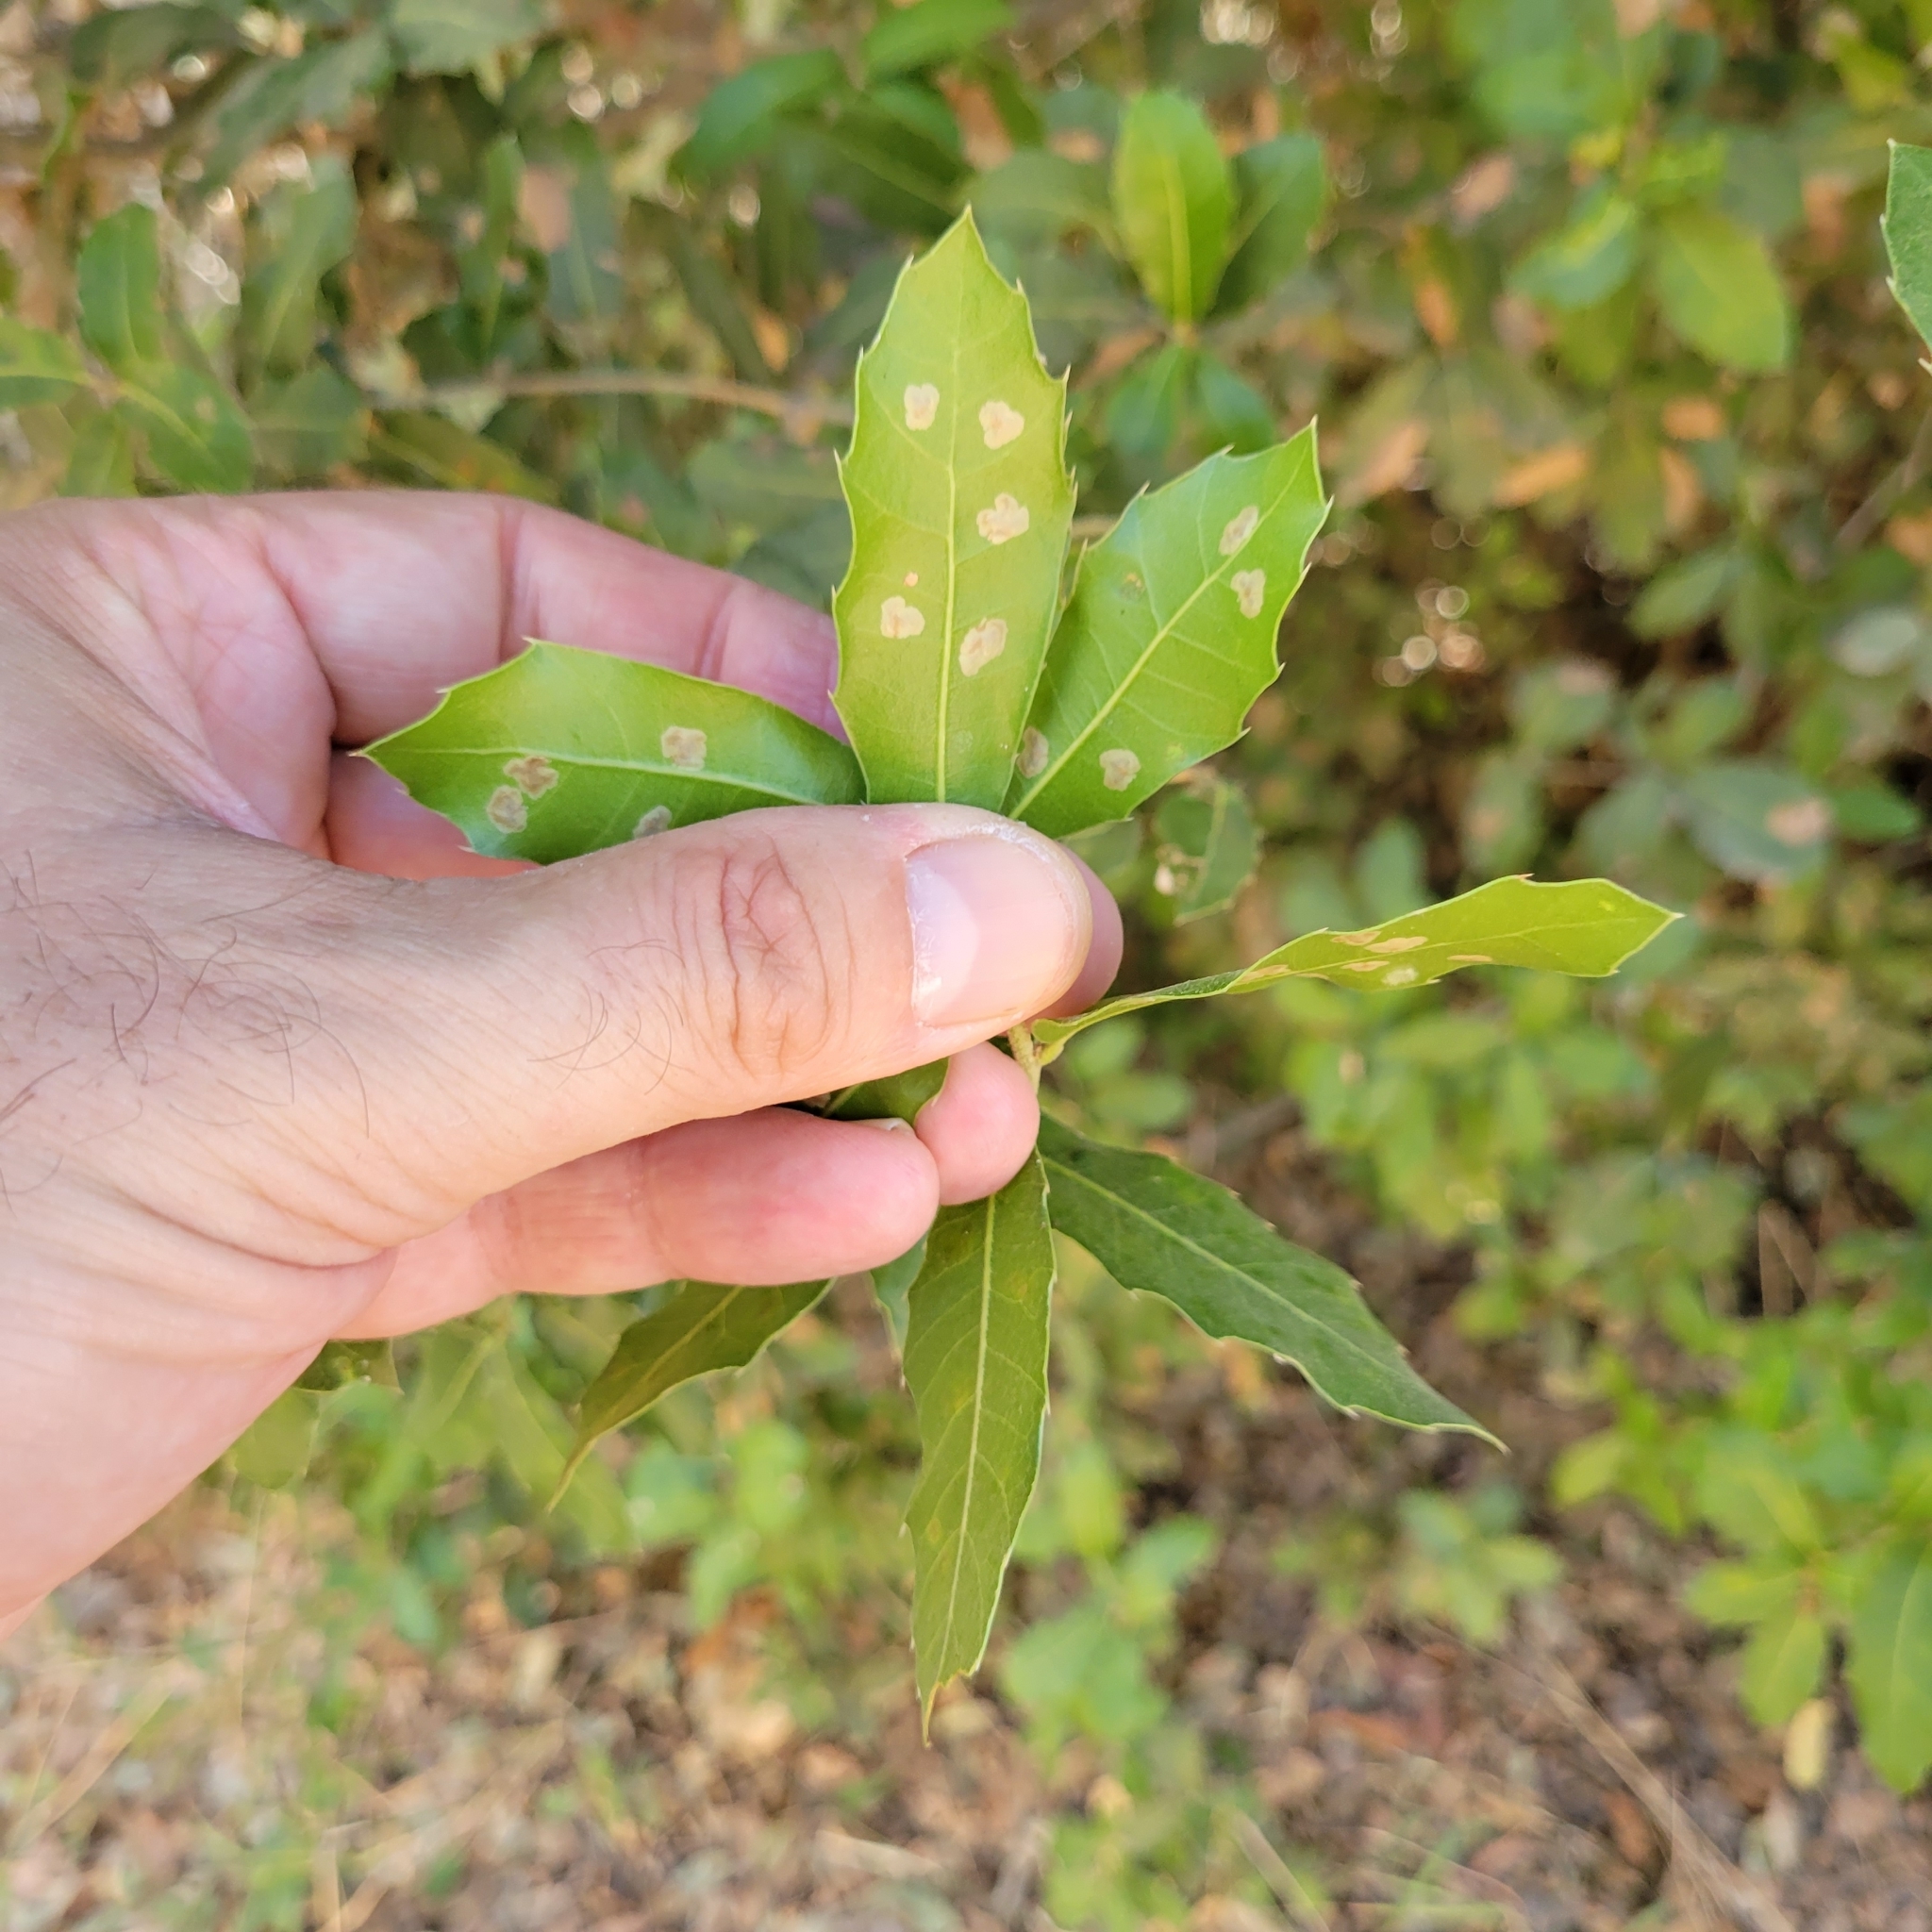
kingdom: Plantae
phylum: Tracheophyta
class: Magnoliopsida
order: Fagales
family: Fagaceae
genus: Quercus
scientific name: Quercus coccifera
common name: Kermes oak
